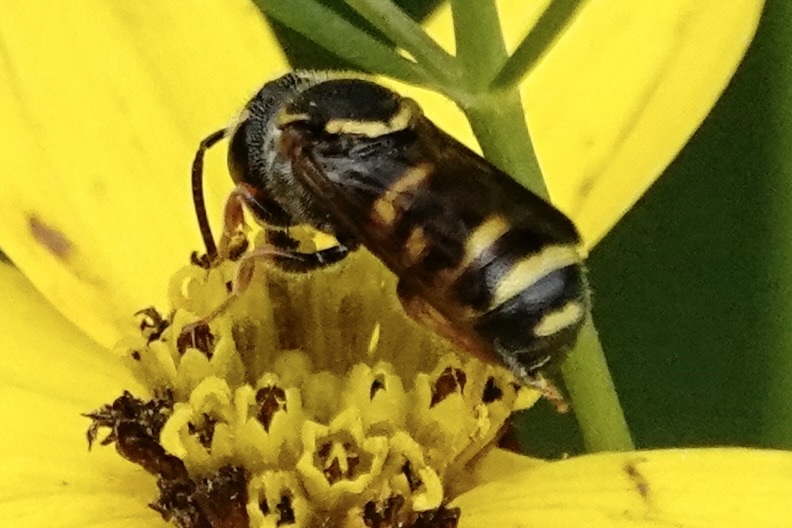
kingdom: Animalia
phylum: Arthropoda
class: Insecta
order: Hymenoptera
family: Megachilidae
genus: Stelis
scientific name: Stelis louisae
